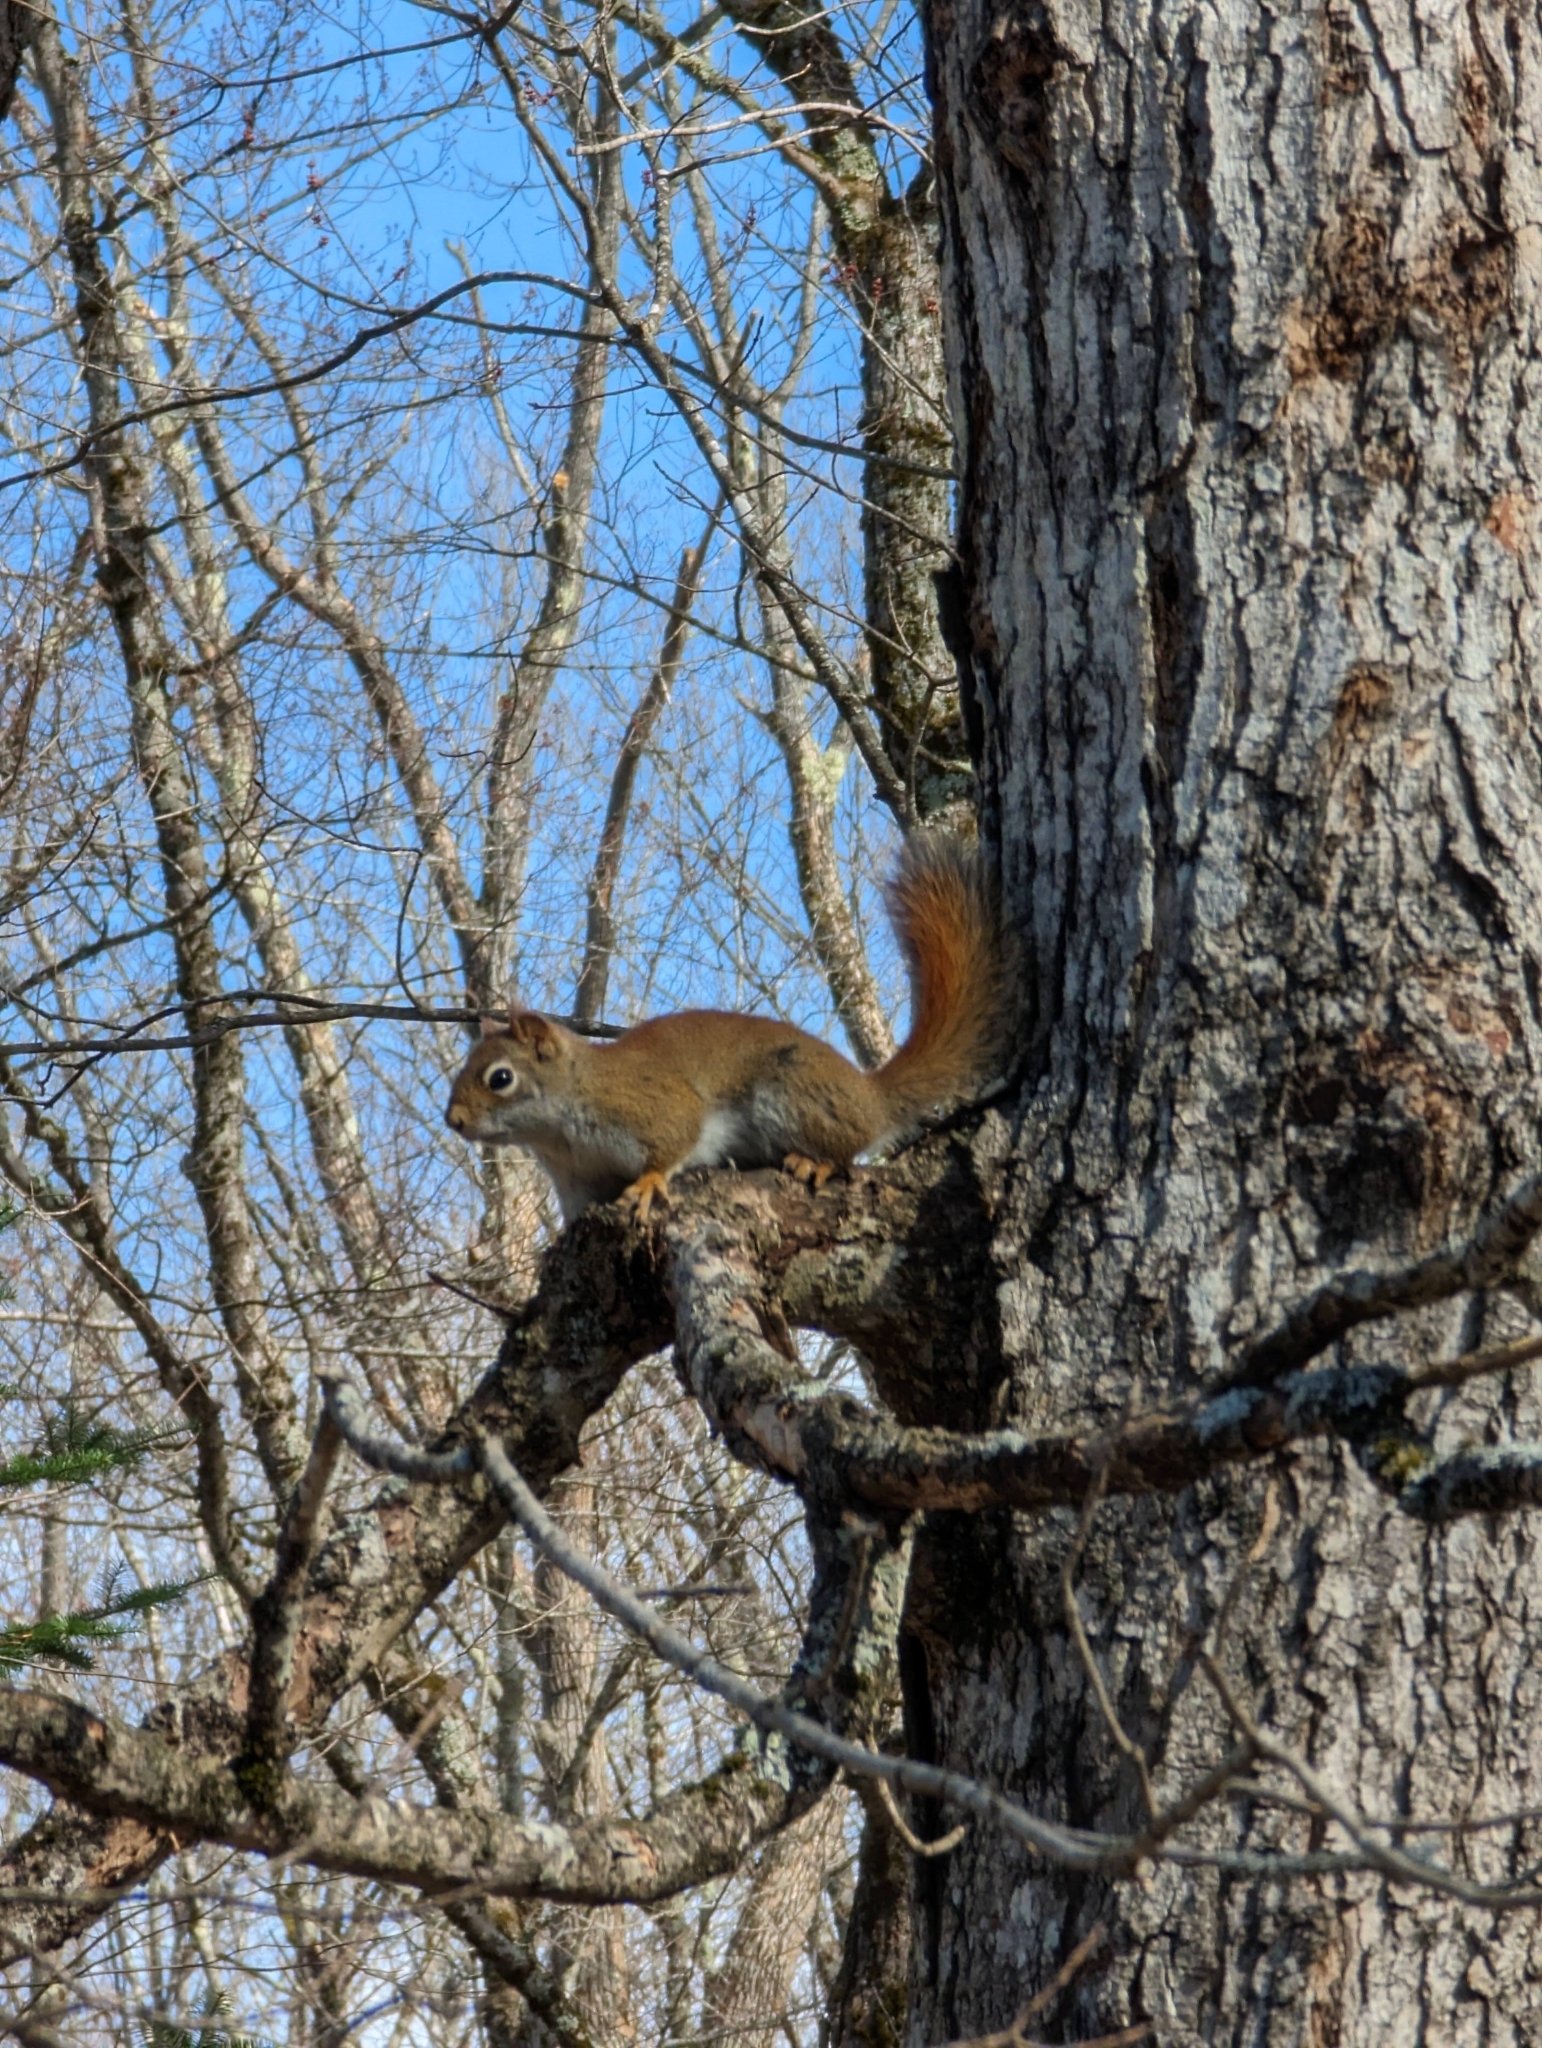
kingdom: Animalia
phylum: Chordata
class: Mammalia
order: Rodentia
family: Sciuridae
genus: Tamiasciurus
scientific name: Tamiasciurus hudsonicus
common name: Red squirrel
